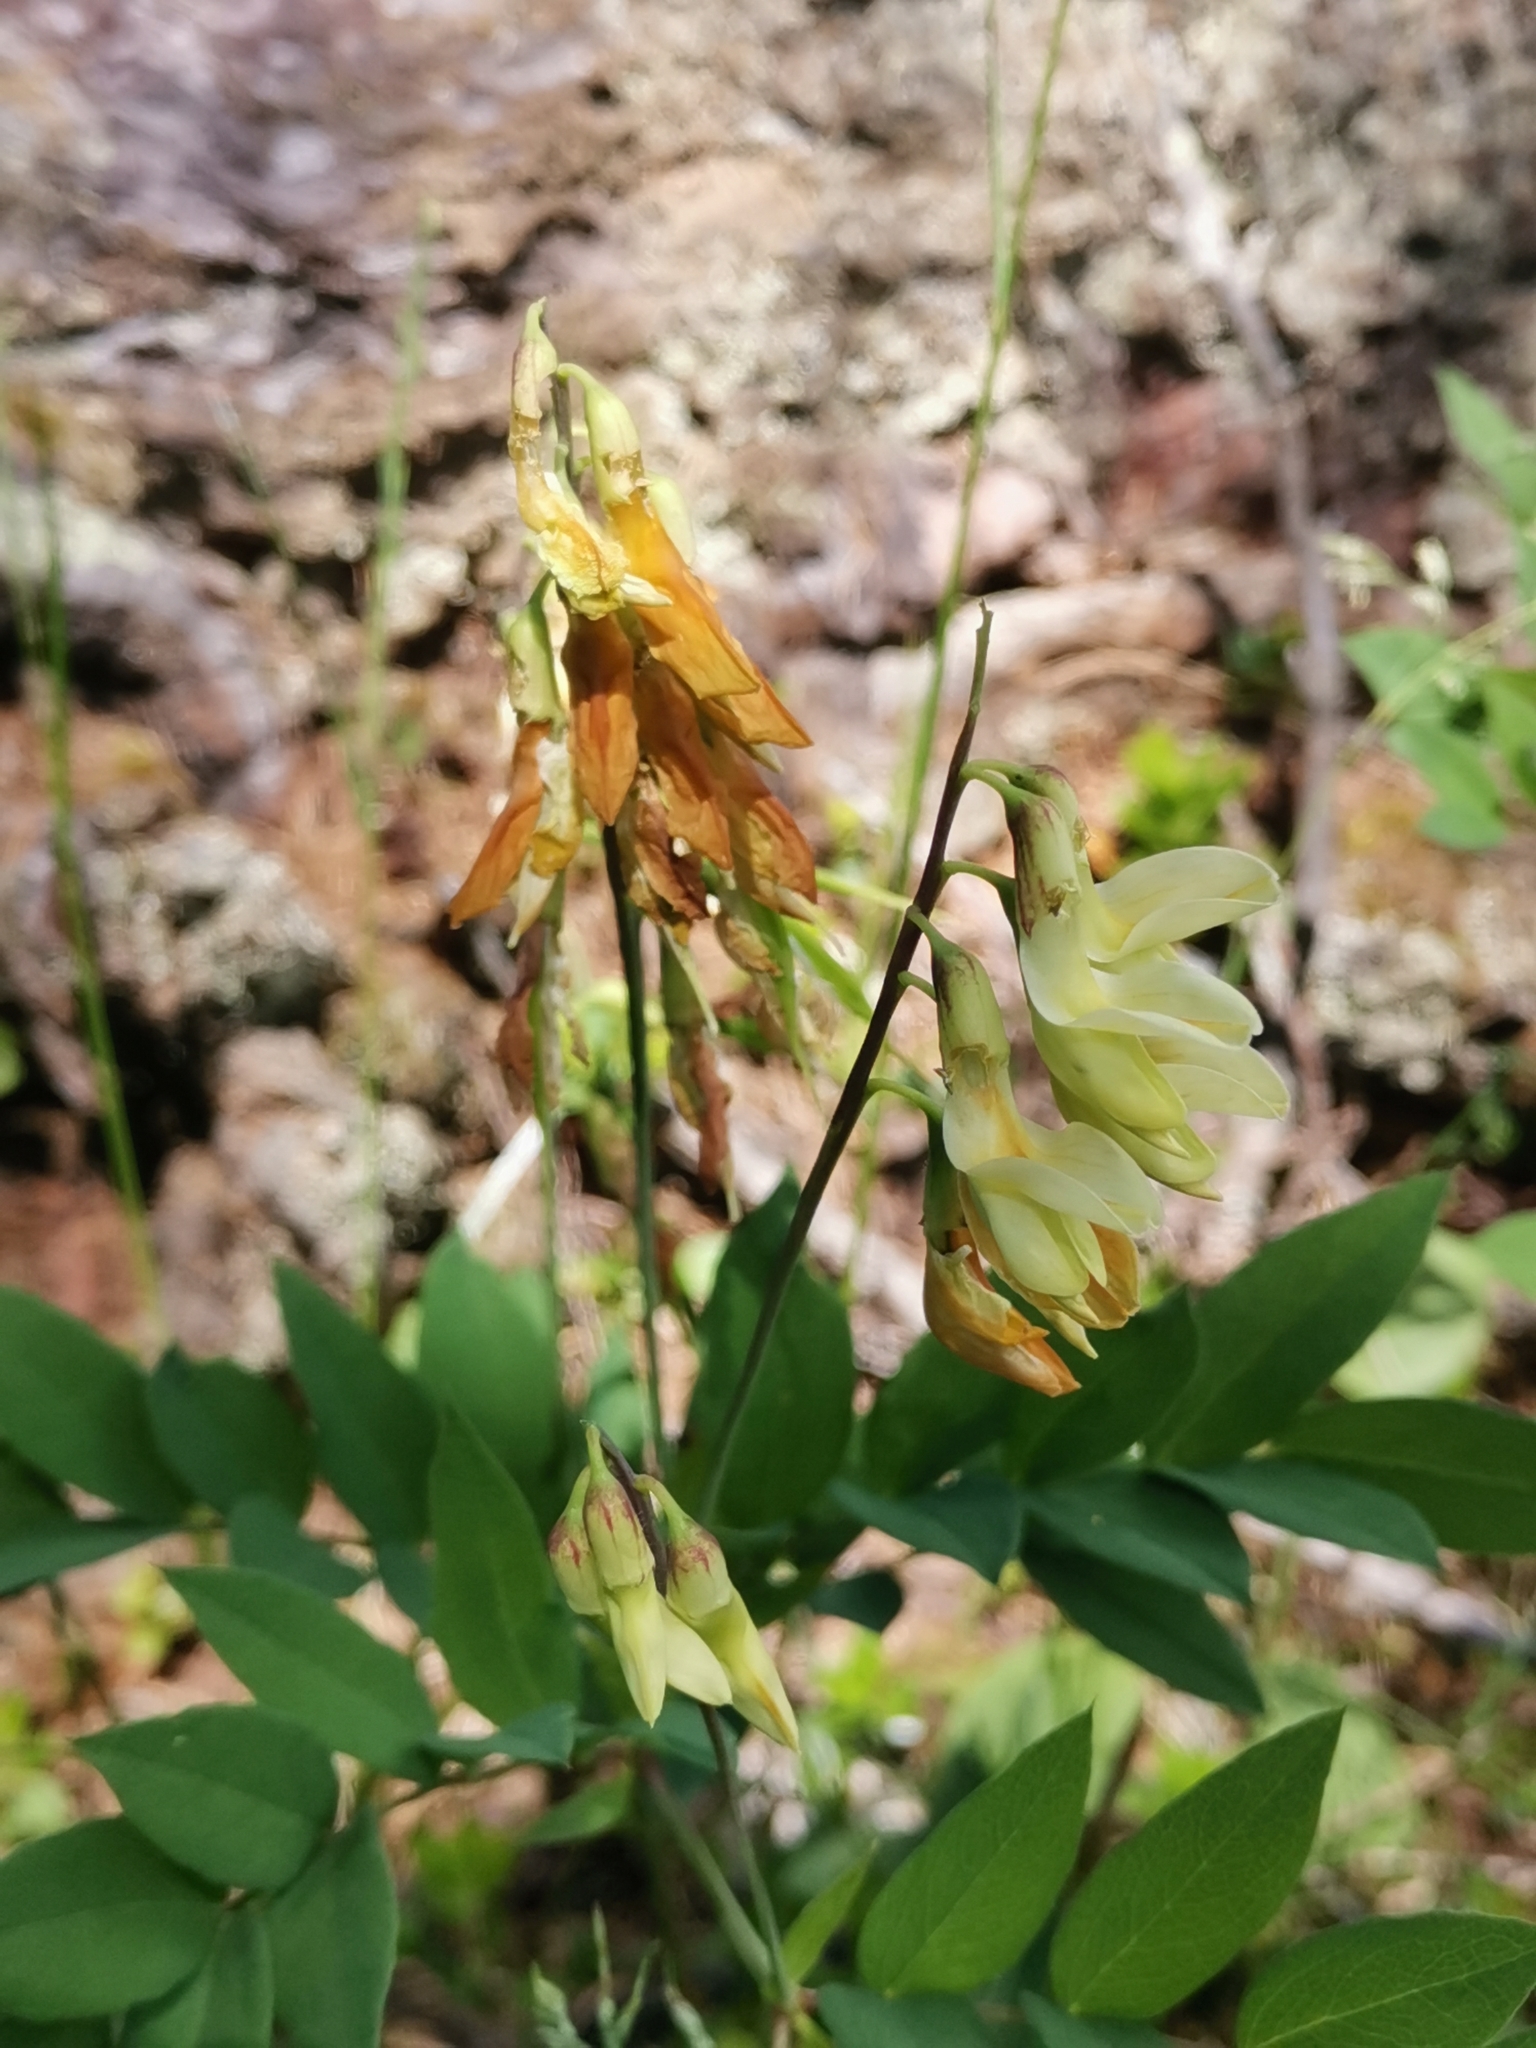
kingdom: Plantae
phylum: Tracheophyta
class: Magnoliopsida
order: Fabales
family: Fabaceae
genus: Lathyrus
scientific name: Lathyrus laevigatus
